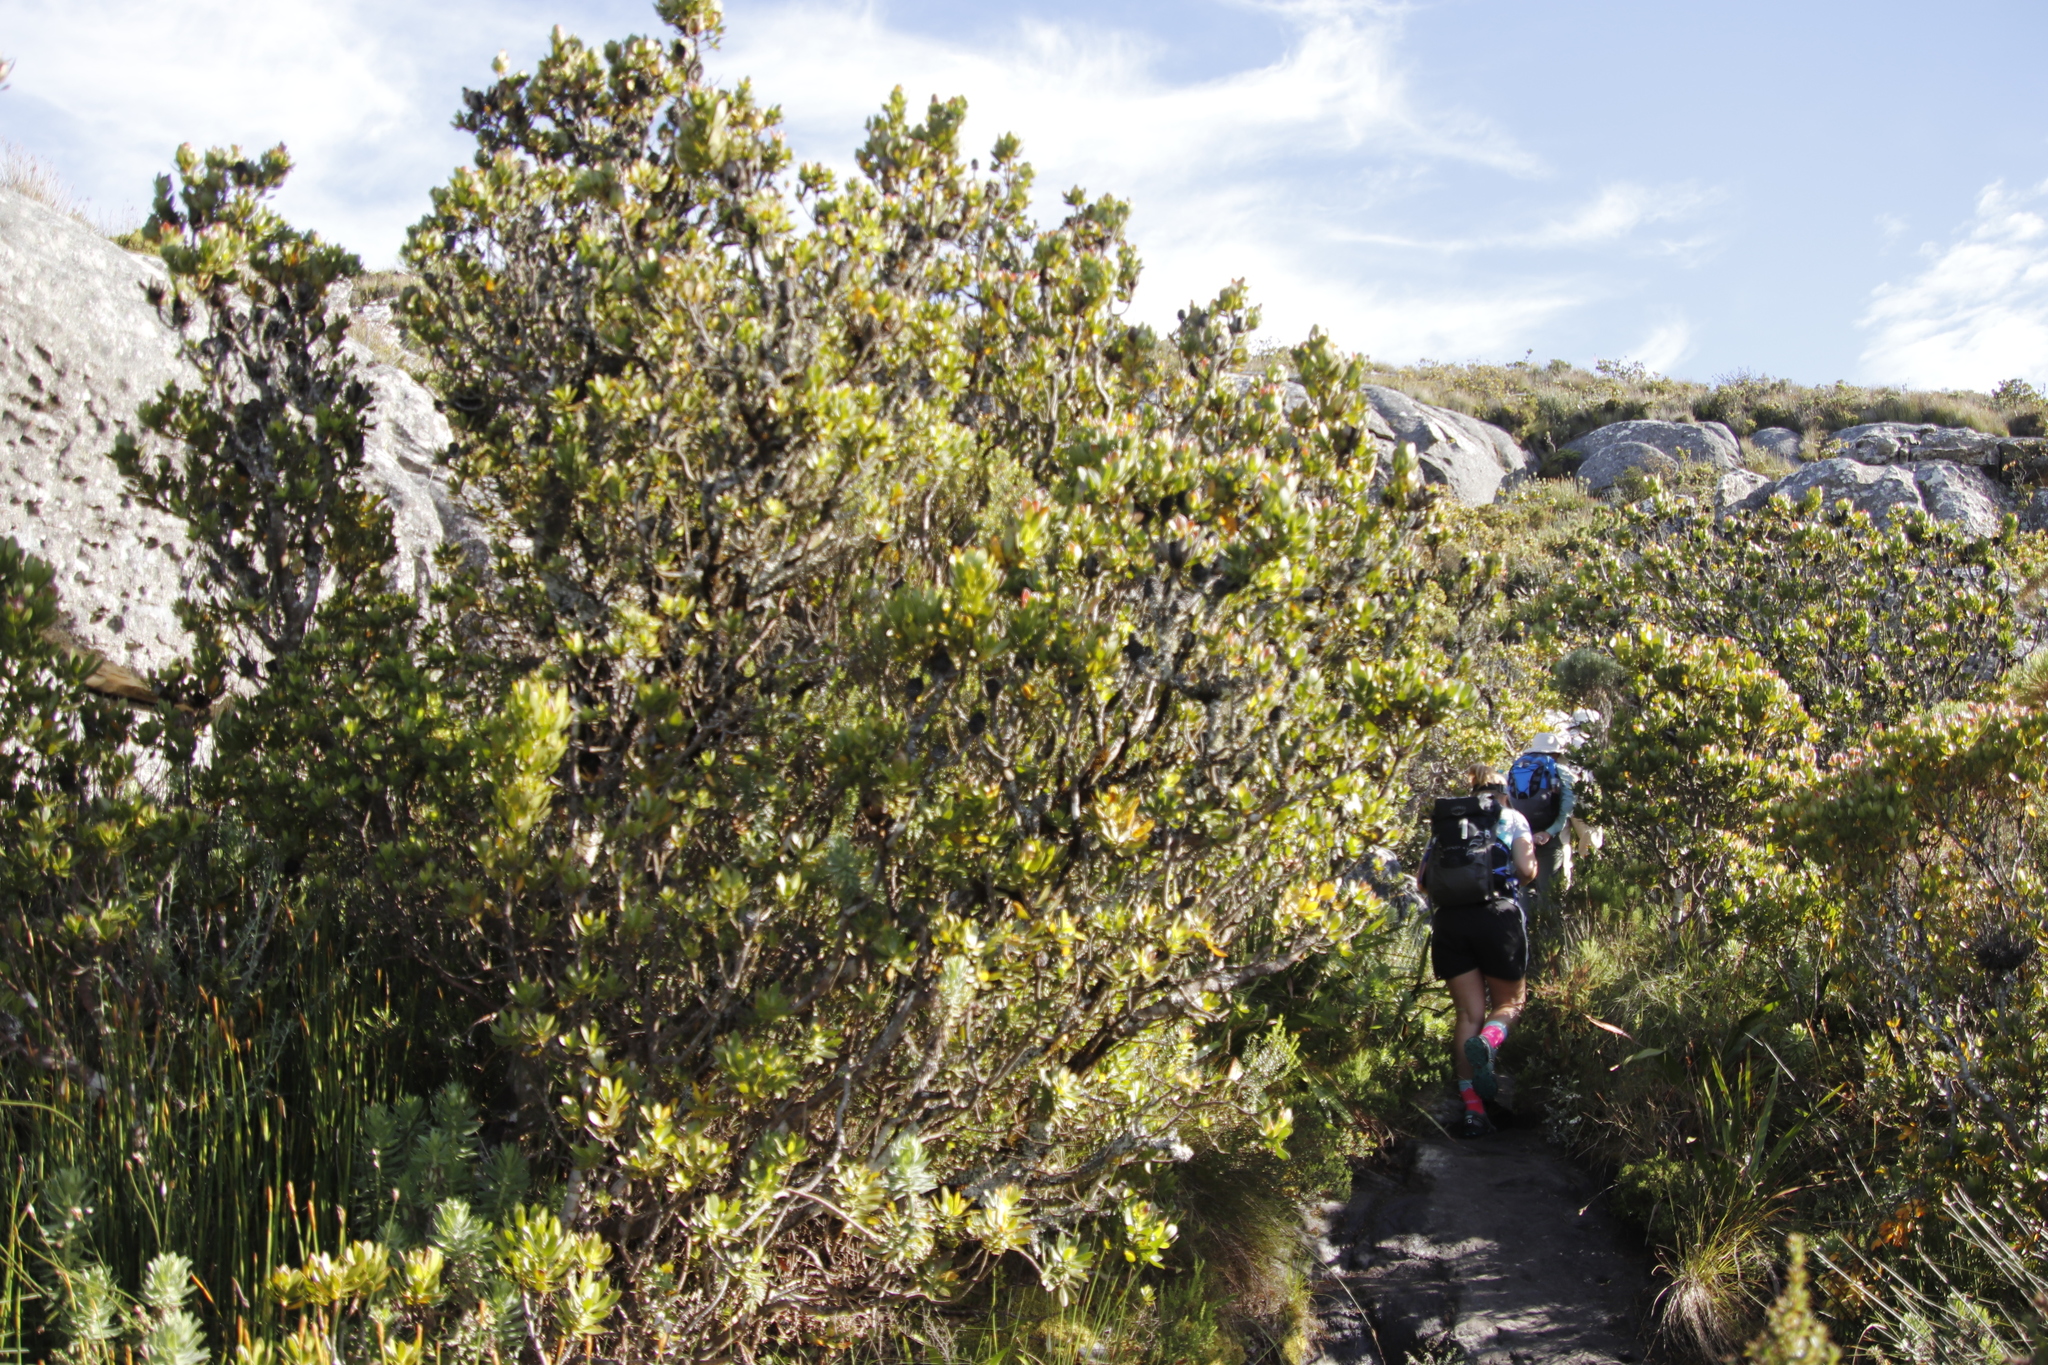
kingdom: Plantae
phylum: Tracheophyta
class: Magnoliopsida
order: Proteales
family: Proteaceae
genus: Leucadendron
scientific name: Leucadendron strobilinum
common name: Mountain rose
